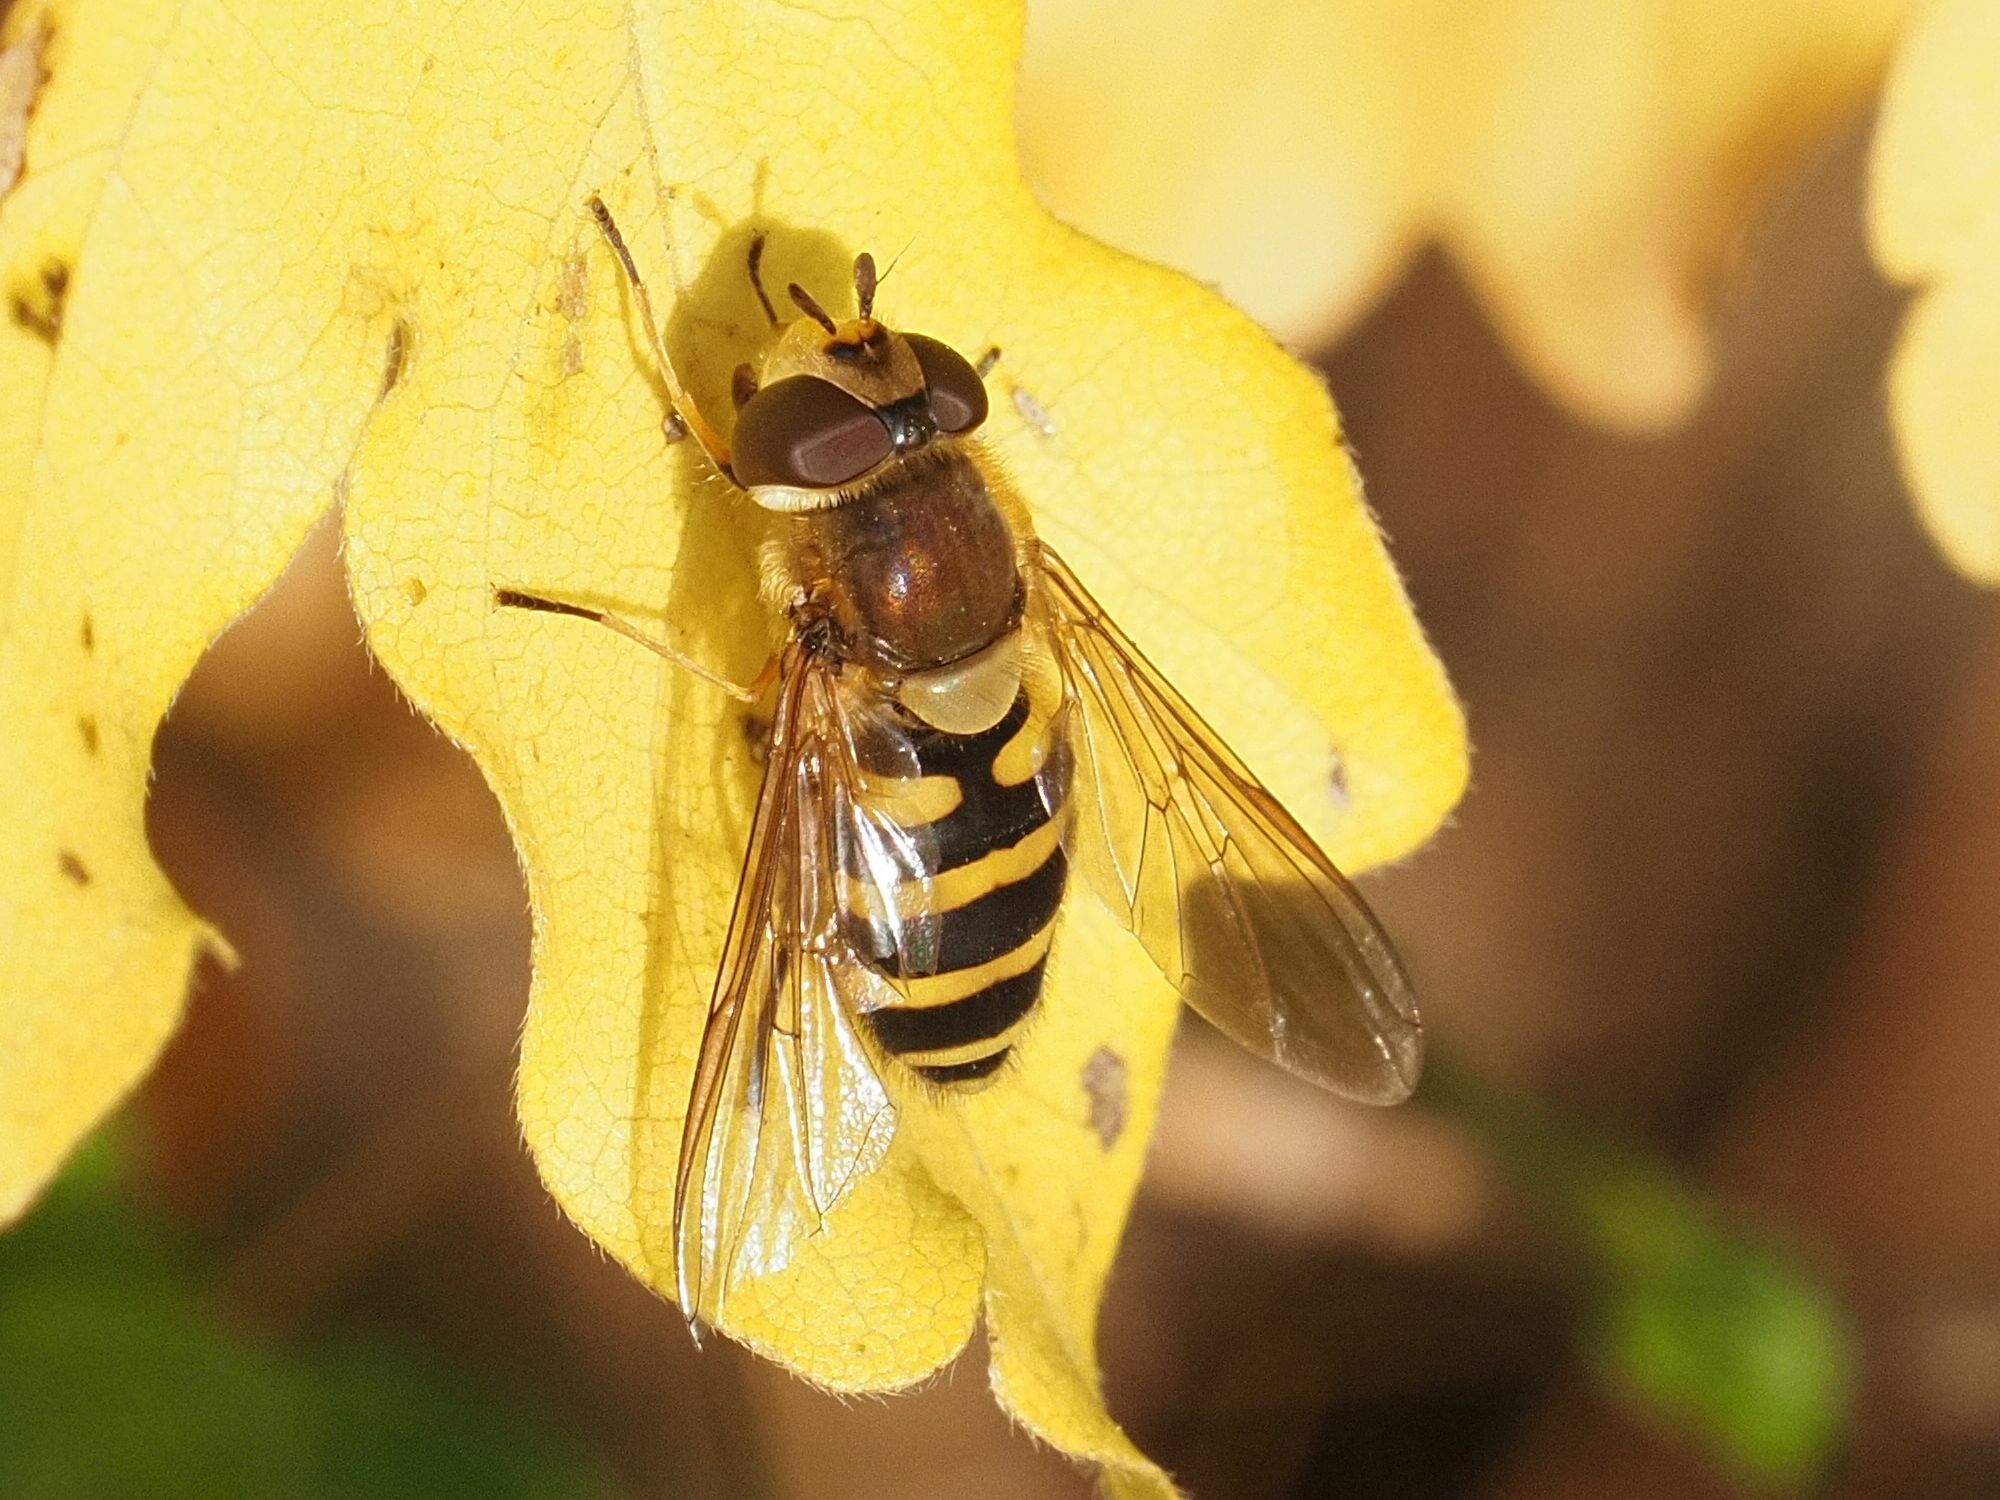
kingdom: Animalia
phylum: Arthropoda
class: Insecta
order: Diptera
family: Syrphidae
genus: Syrphus
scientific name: Syrphus
